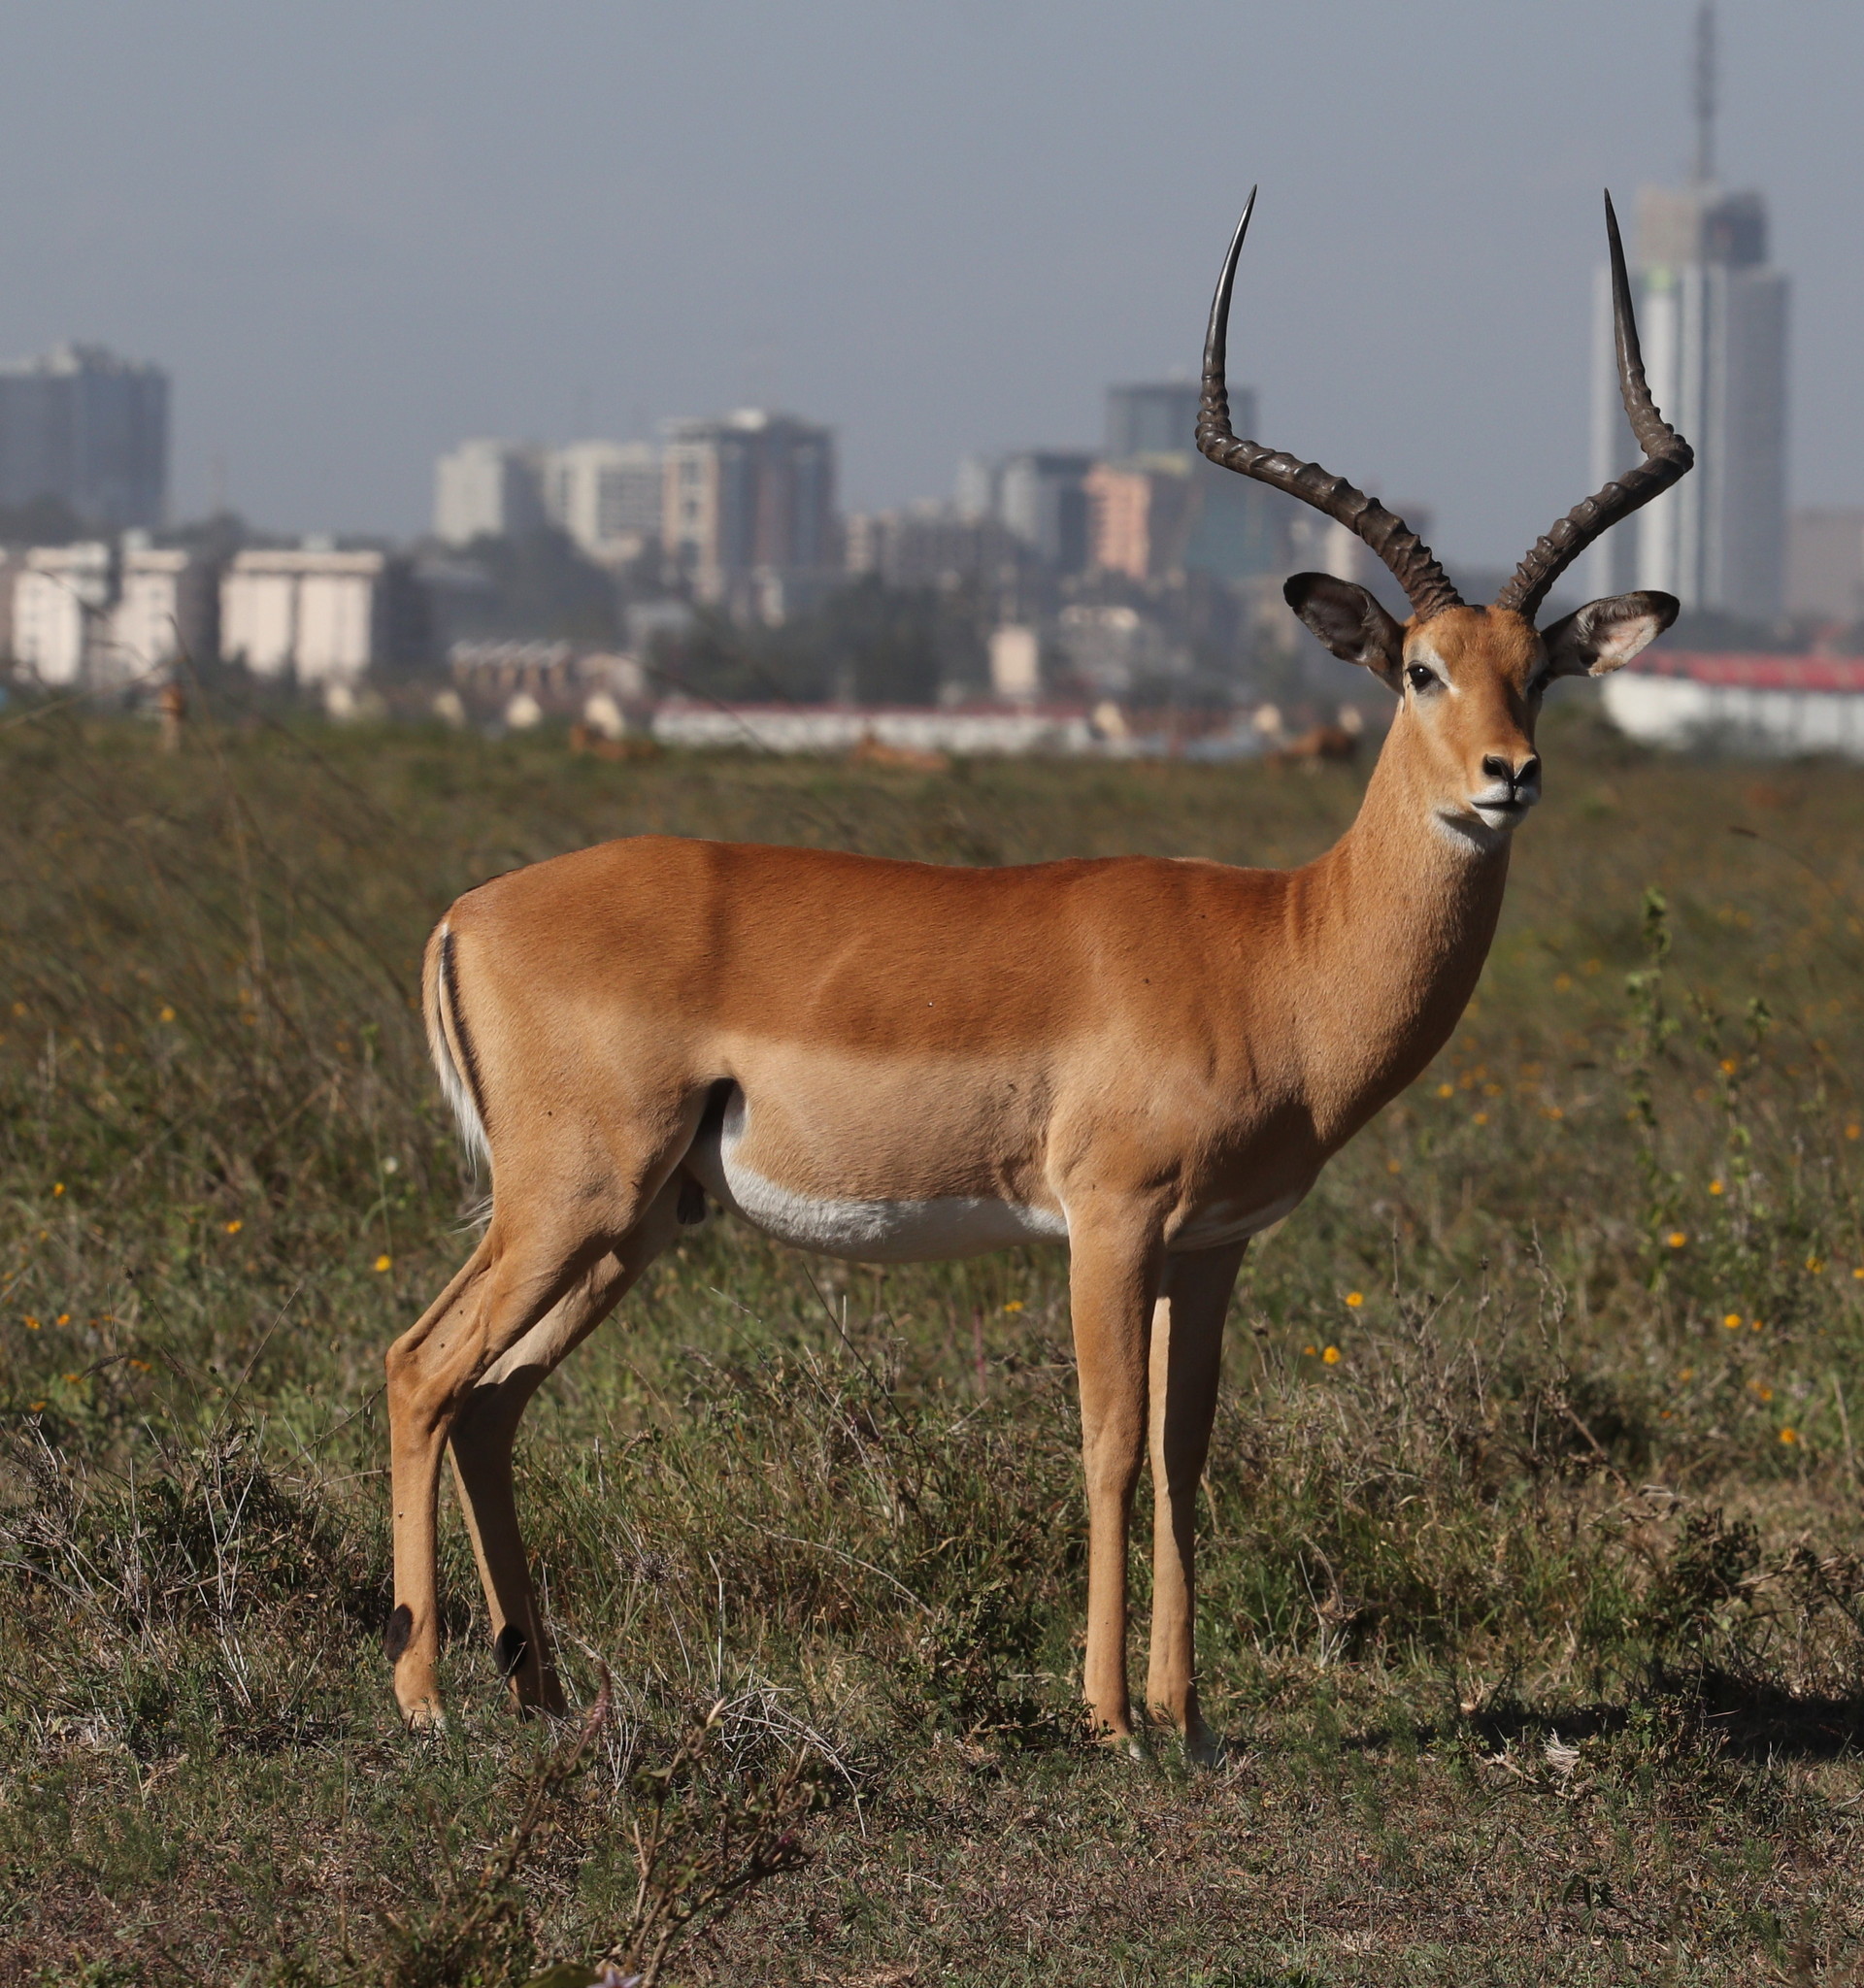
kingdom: Animalia
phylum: Chordata
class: Mammalia
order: Artiodactyla
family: Bovidae
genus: Aepyceros
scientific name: Aepyceros melampus
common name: Impala
